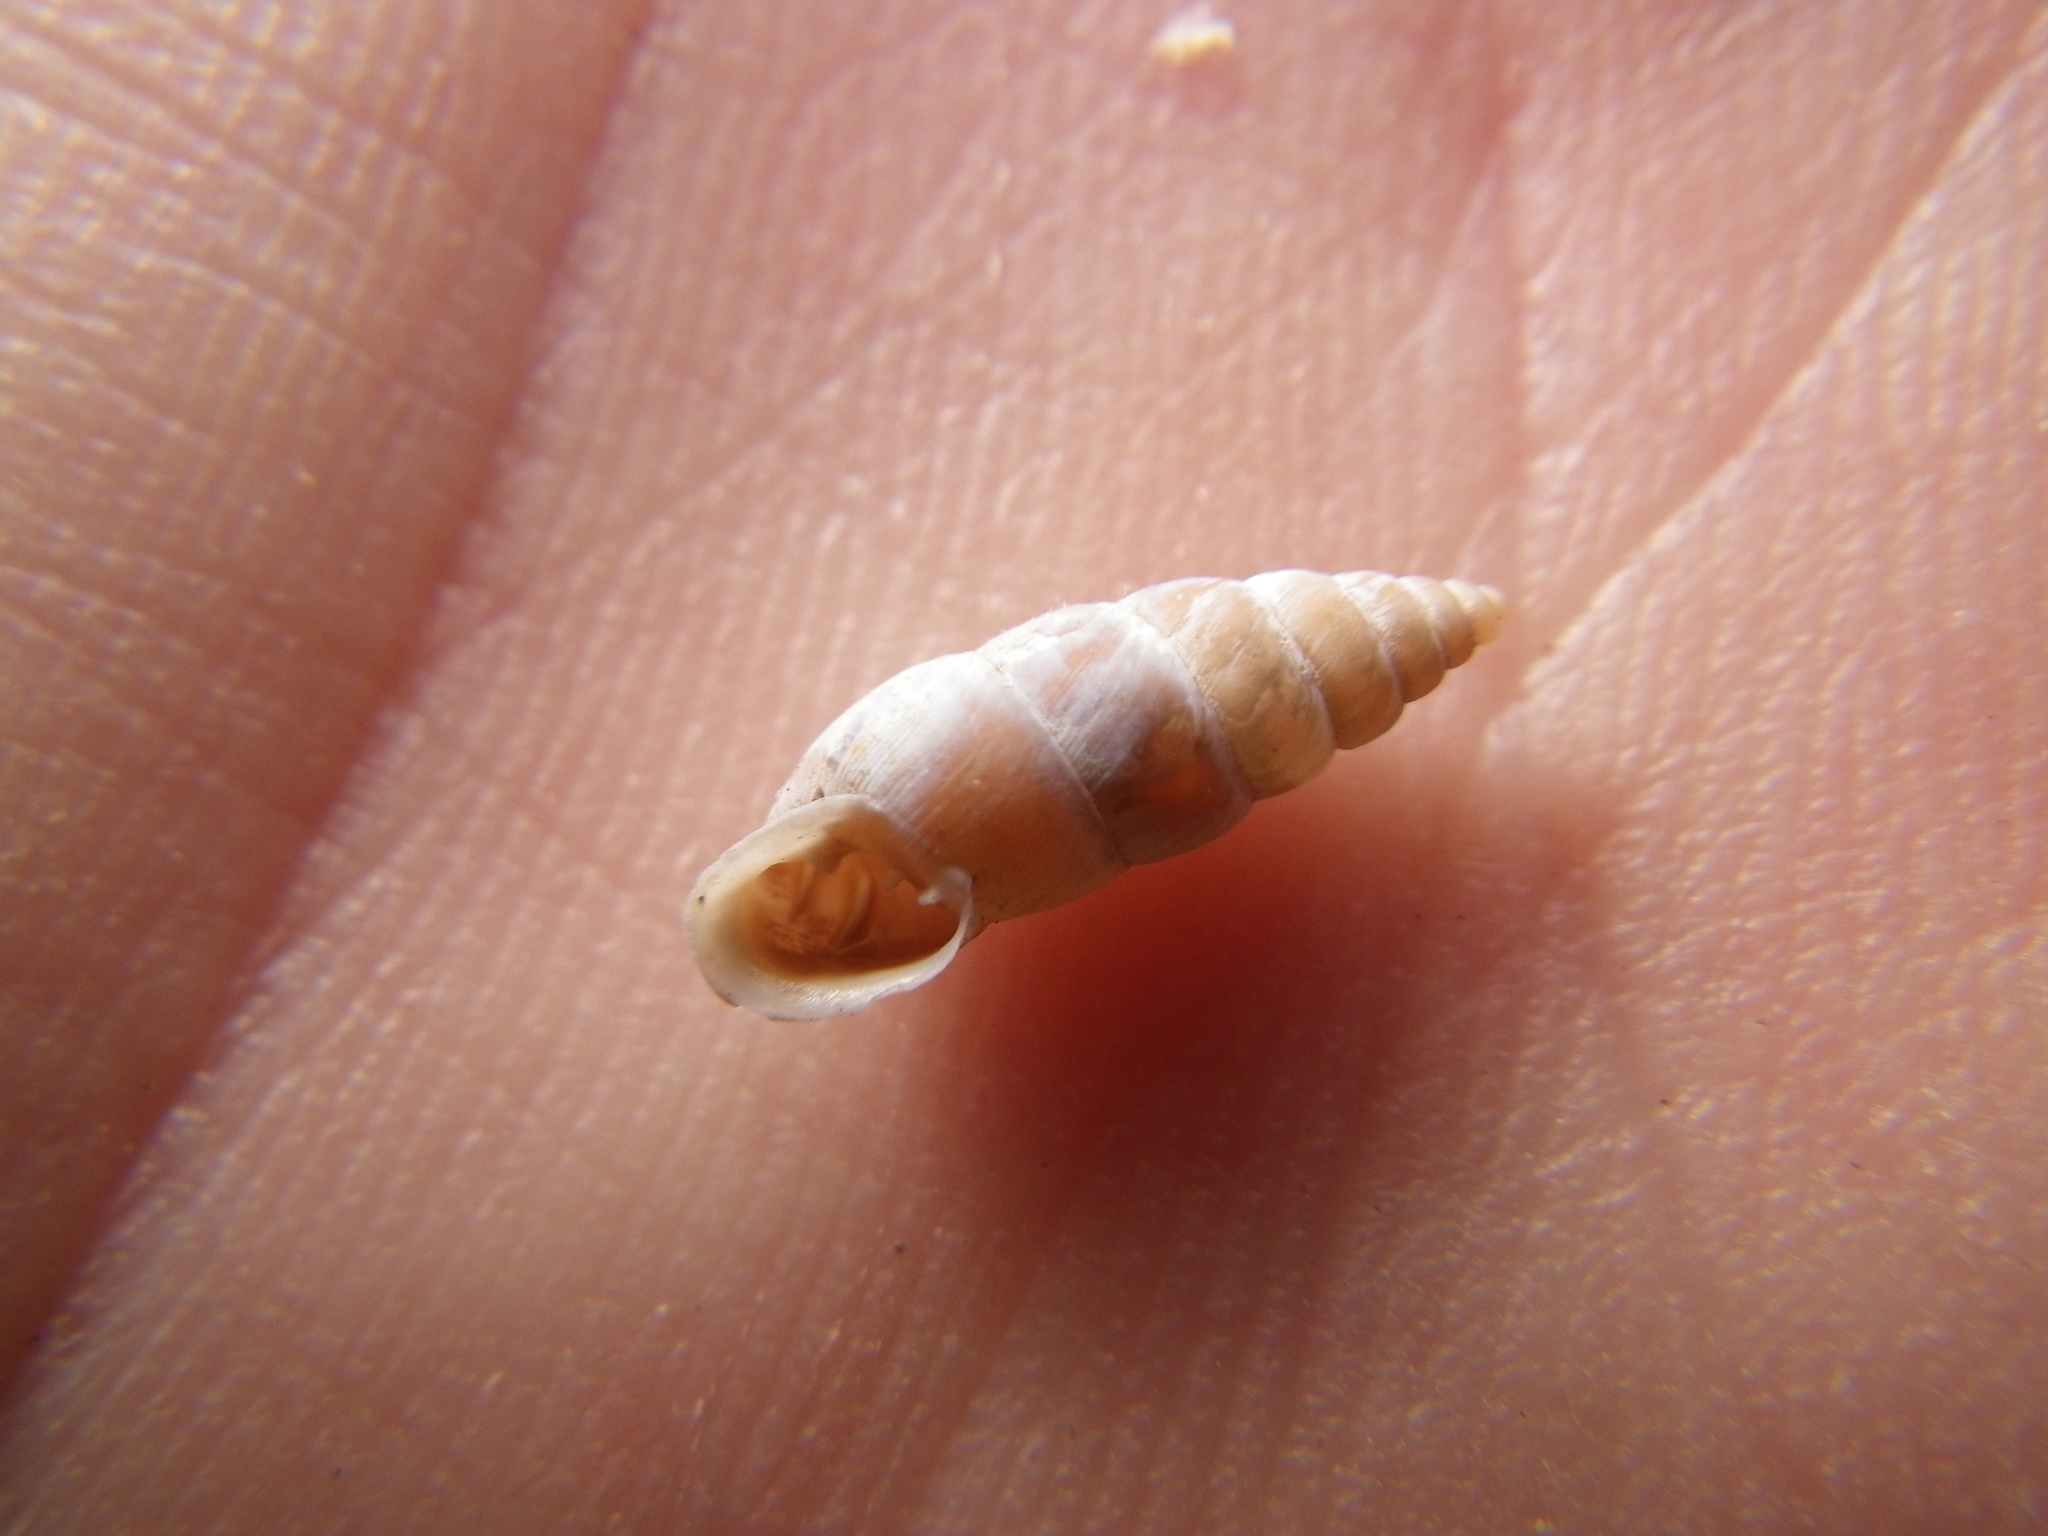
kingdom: Animalia
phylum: Mollusca
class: Gastropoda
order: Stylommatophora
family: Chondrinidae
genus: Solatopupa
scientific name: Solatopupa similis
